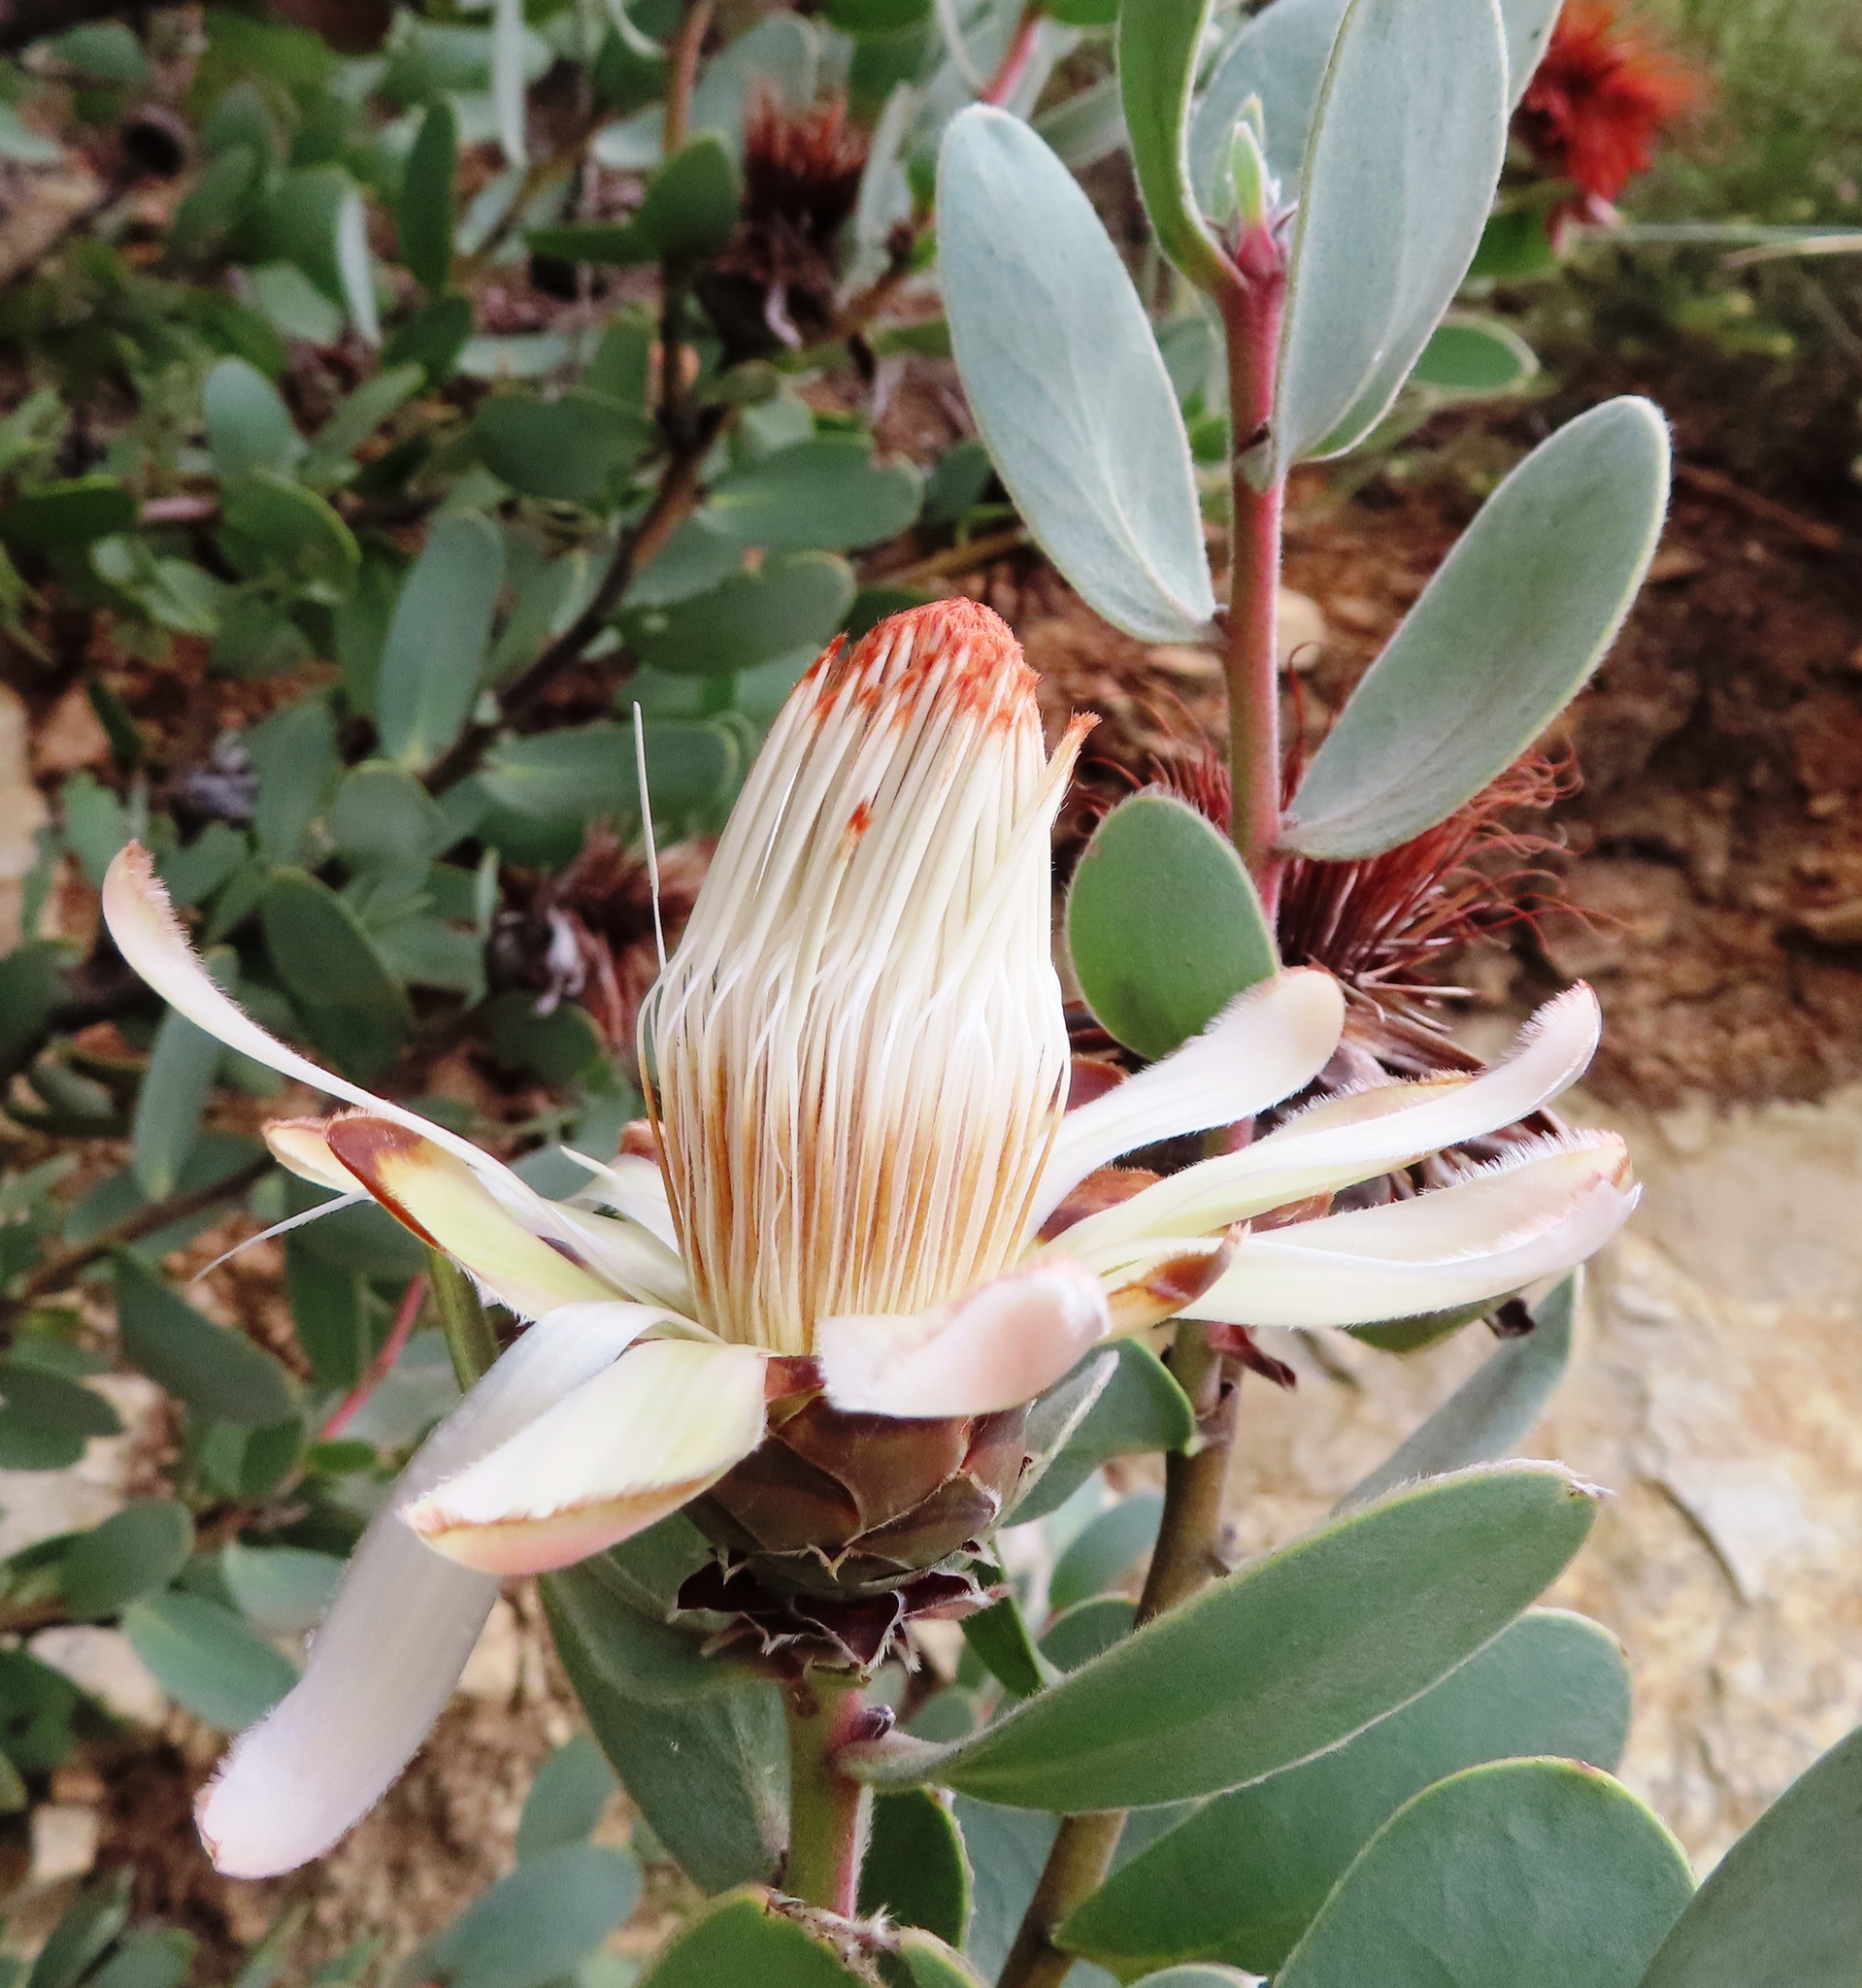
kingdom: Plantae
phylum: Tracheophyta
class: Magnoliopsida
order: Proteales
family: Proteaceae
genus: Protea
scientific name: Protea punctata
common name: Water sugarbush
